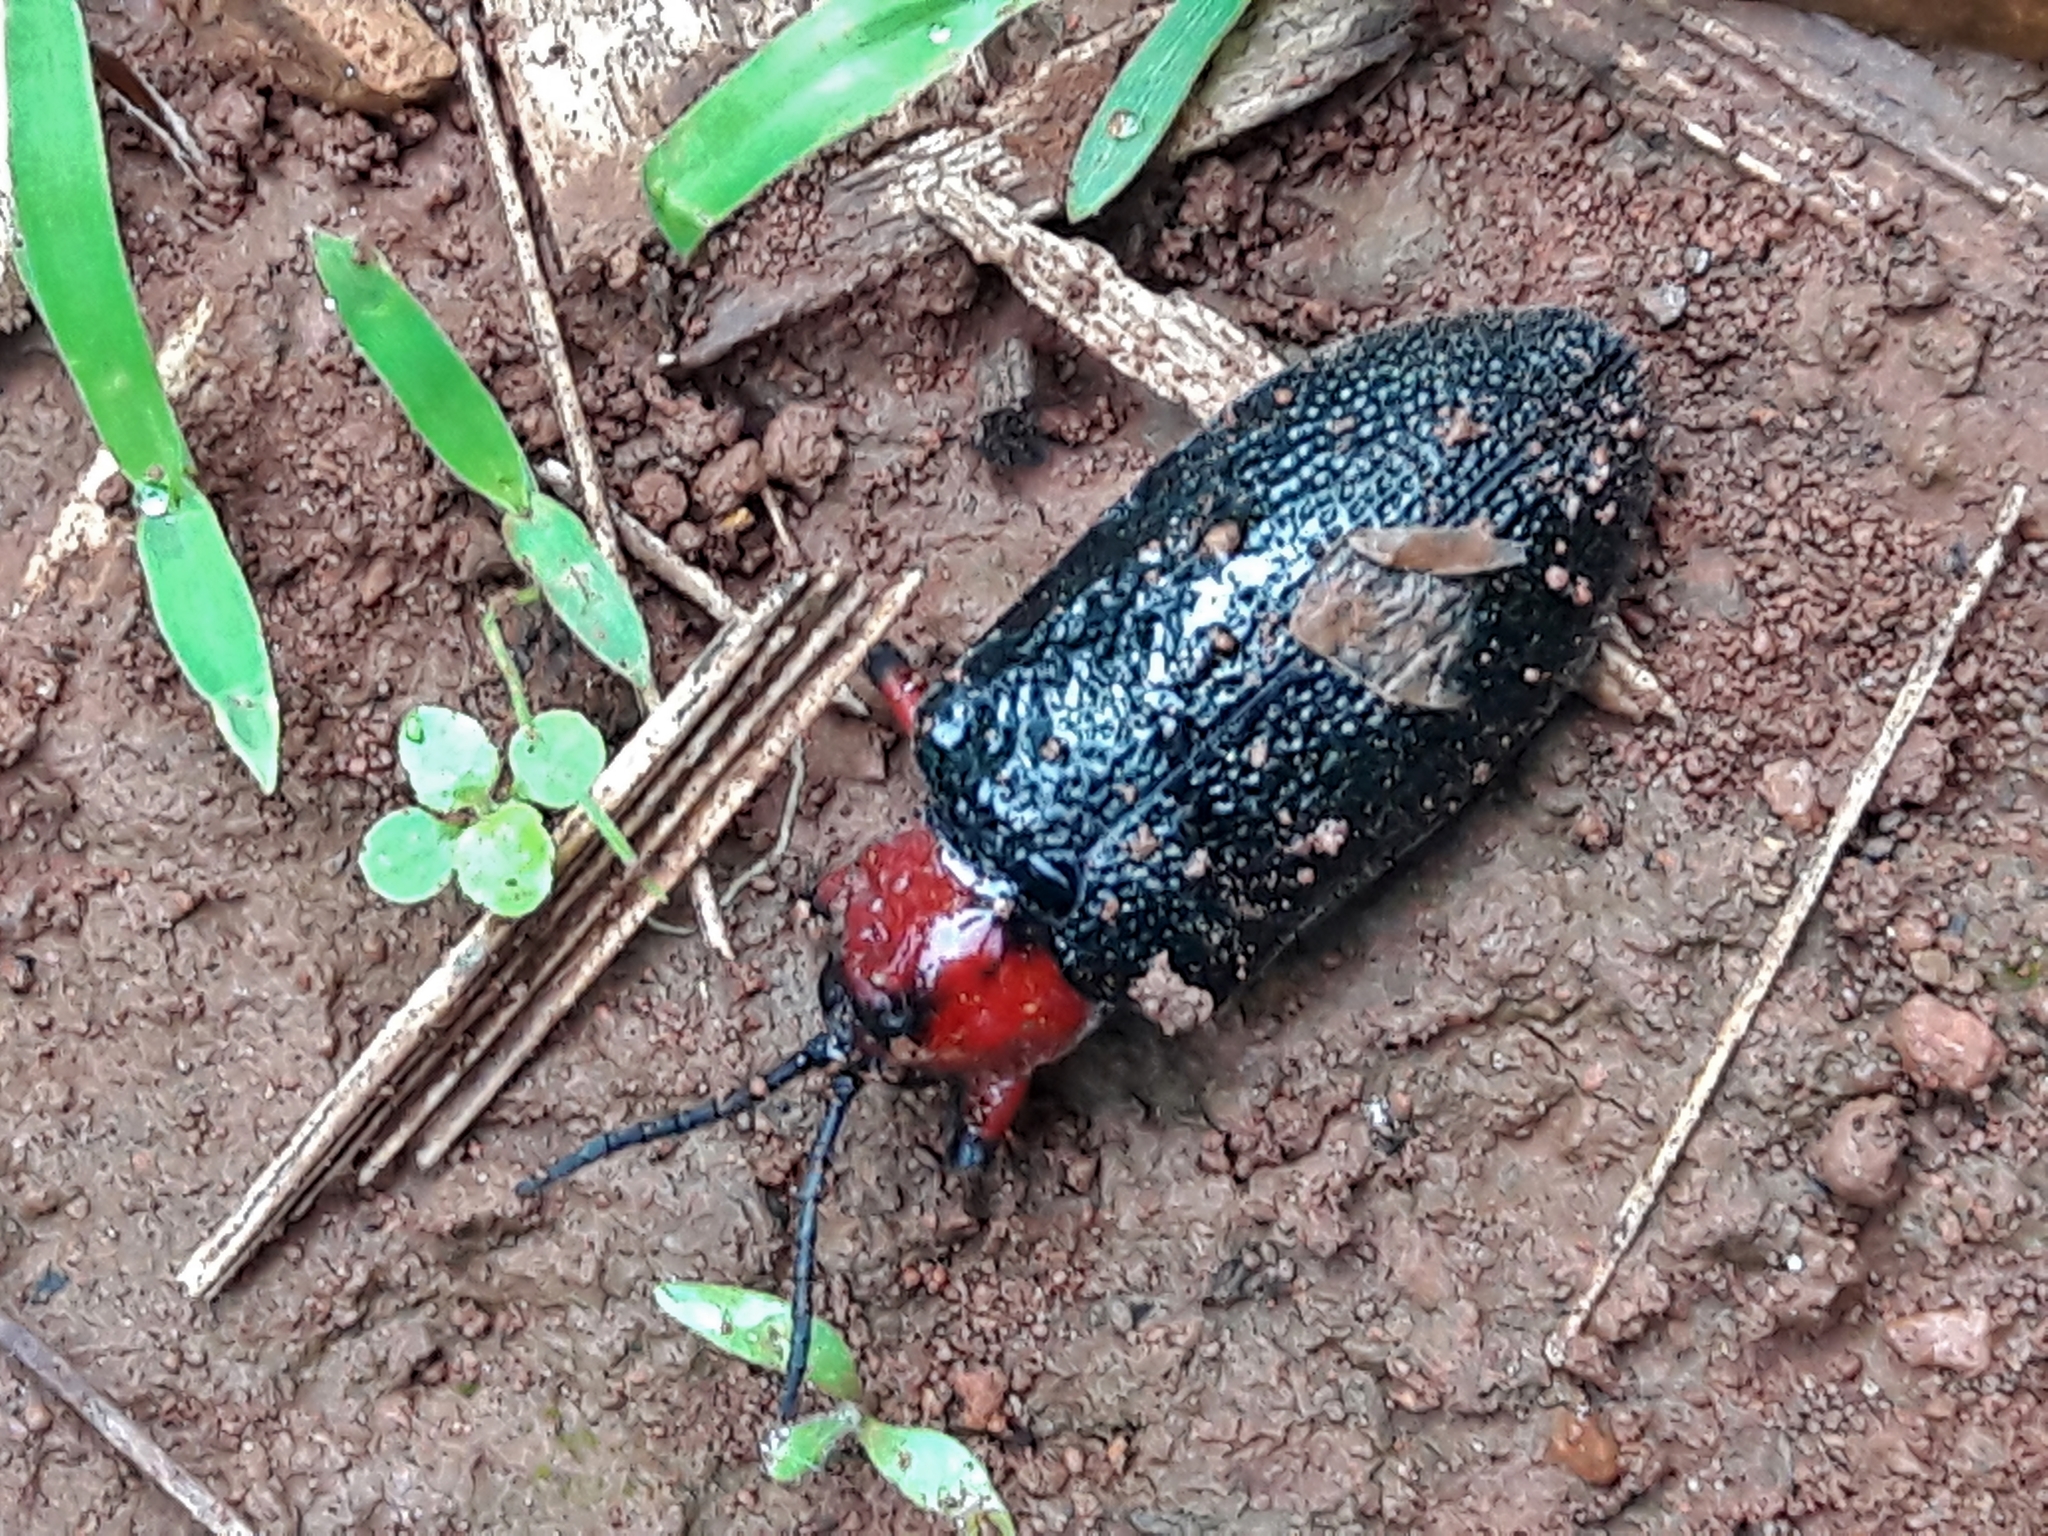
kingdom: Animalia
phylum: Arthropoda
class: Insecta
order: Coleoptera
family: Chrysomelidae
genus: Coraliomela
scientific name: Coraliomela brunnea
